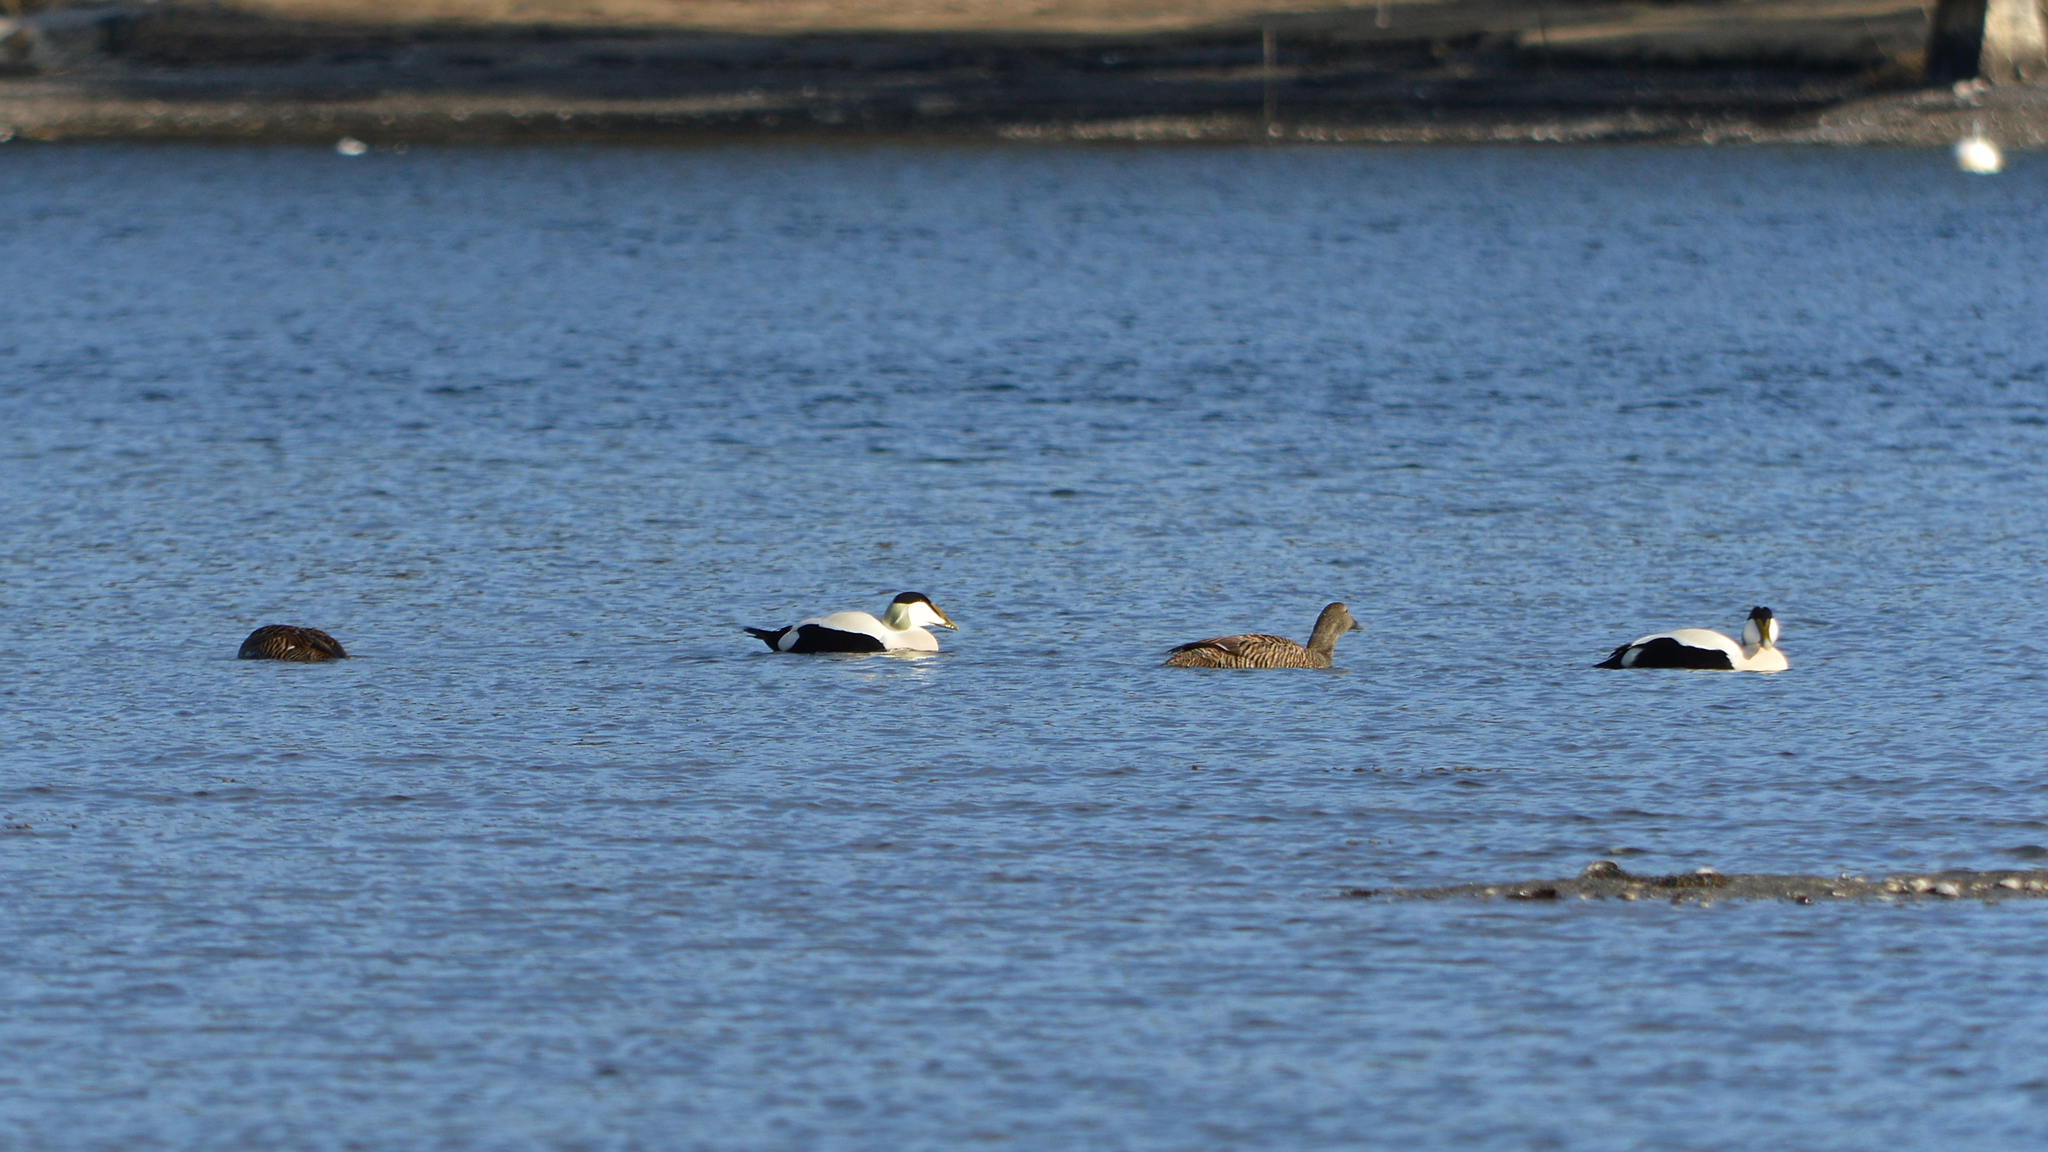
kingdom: Animalia
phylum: Chordata
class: Aves
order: Anseriformes
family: Anatidae
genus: Somateria
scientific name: Somateria mollissima
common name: Common eider
